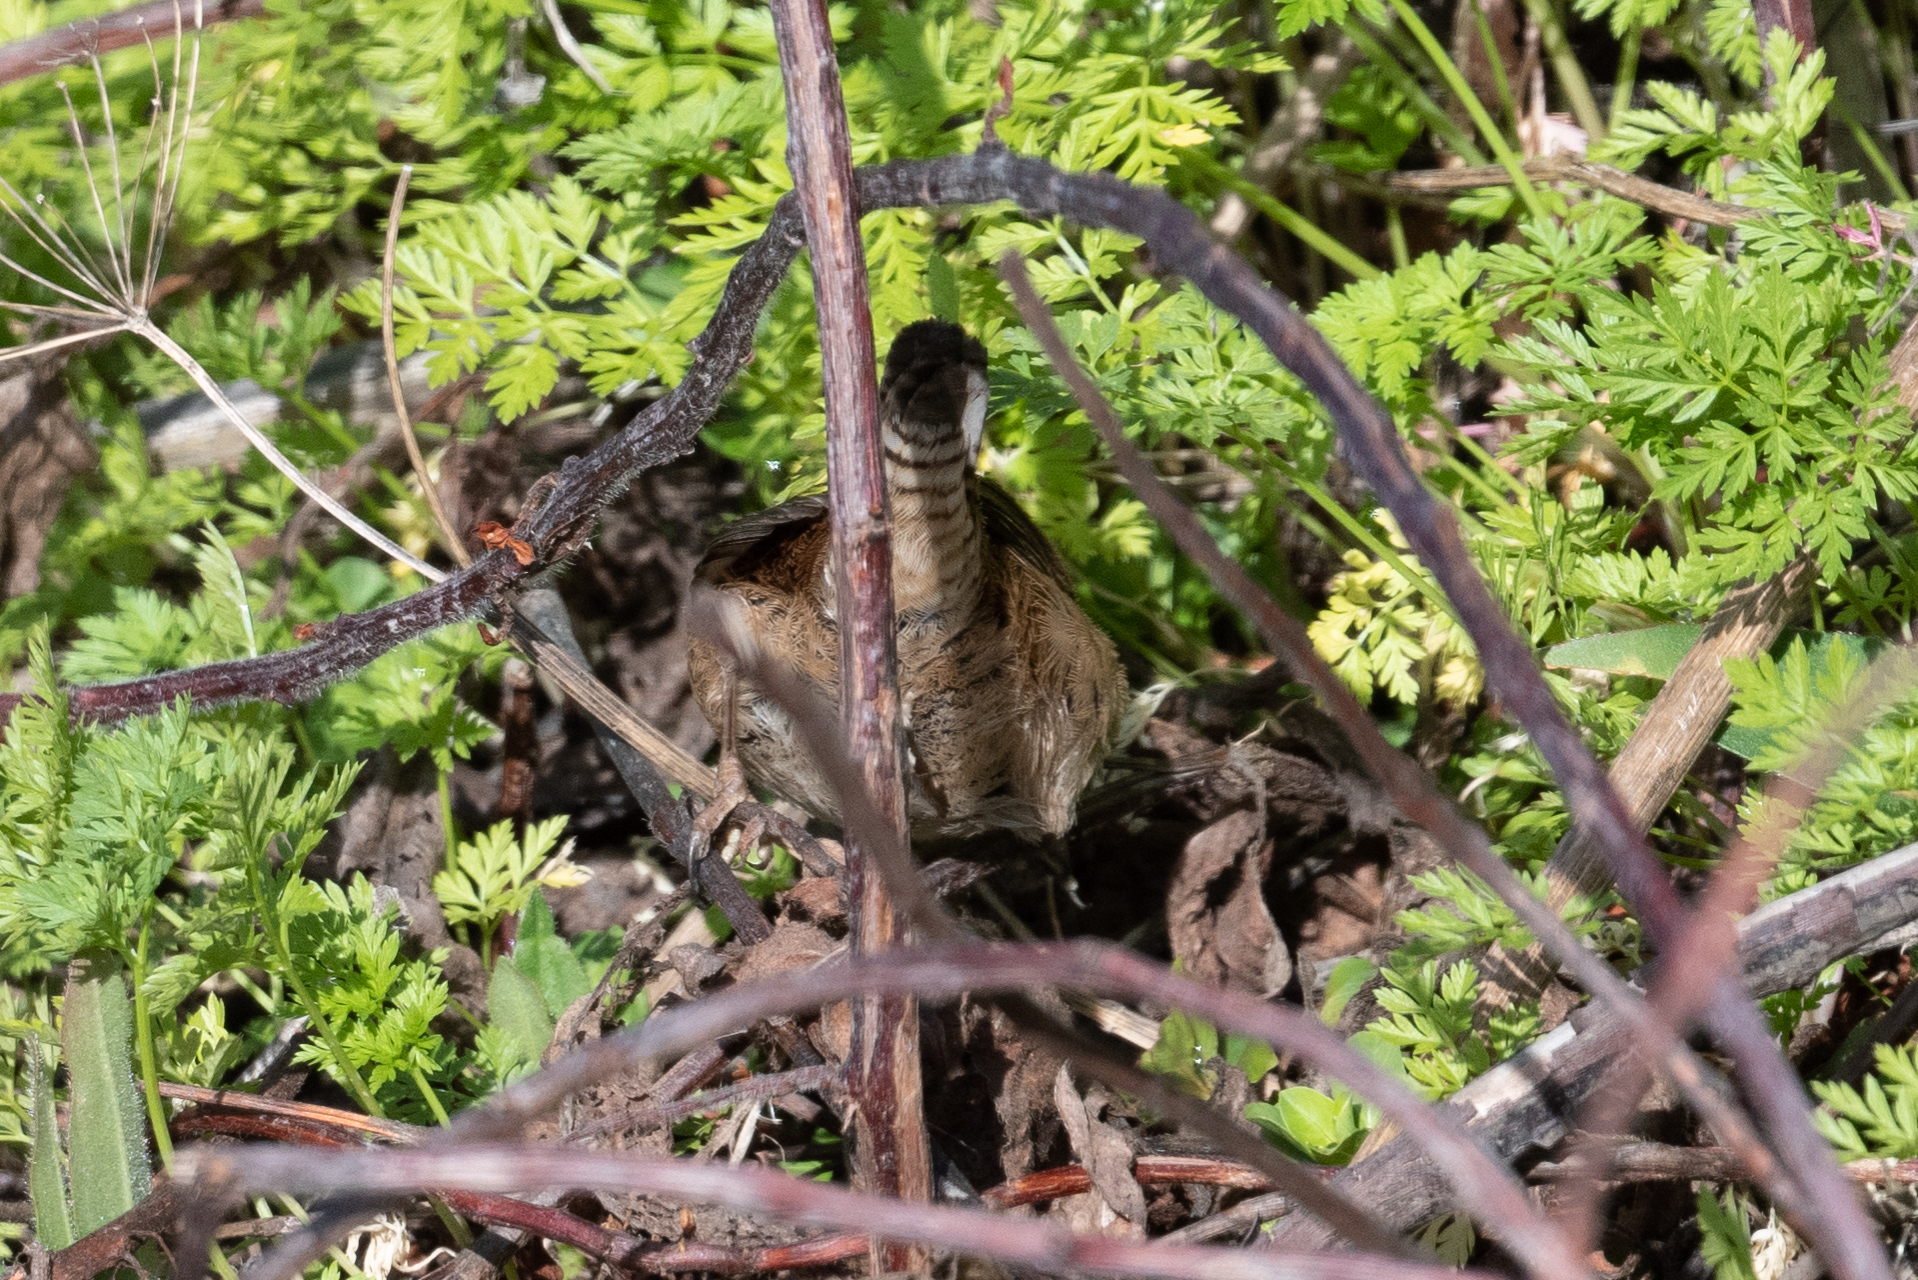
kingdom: Animalia
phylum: Chordata
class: Aves
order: Passeriformes
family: Troglodytidae
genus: Cistothorus
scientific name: Cistothorus palustris
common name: Marsh wren
